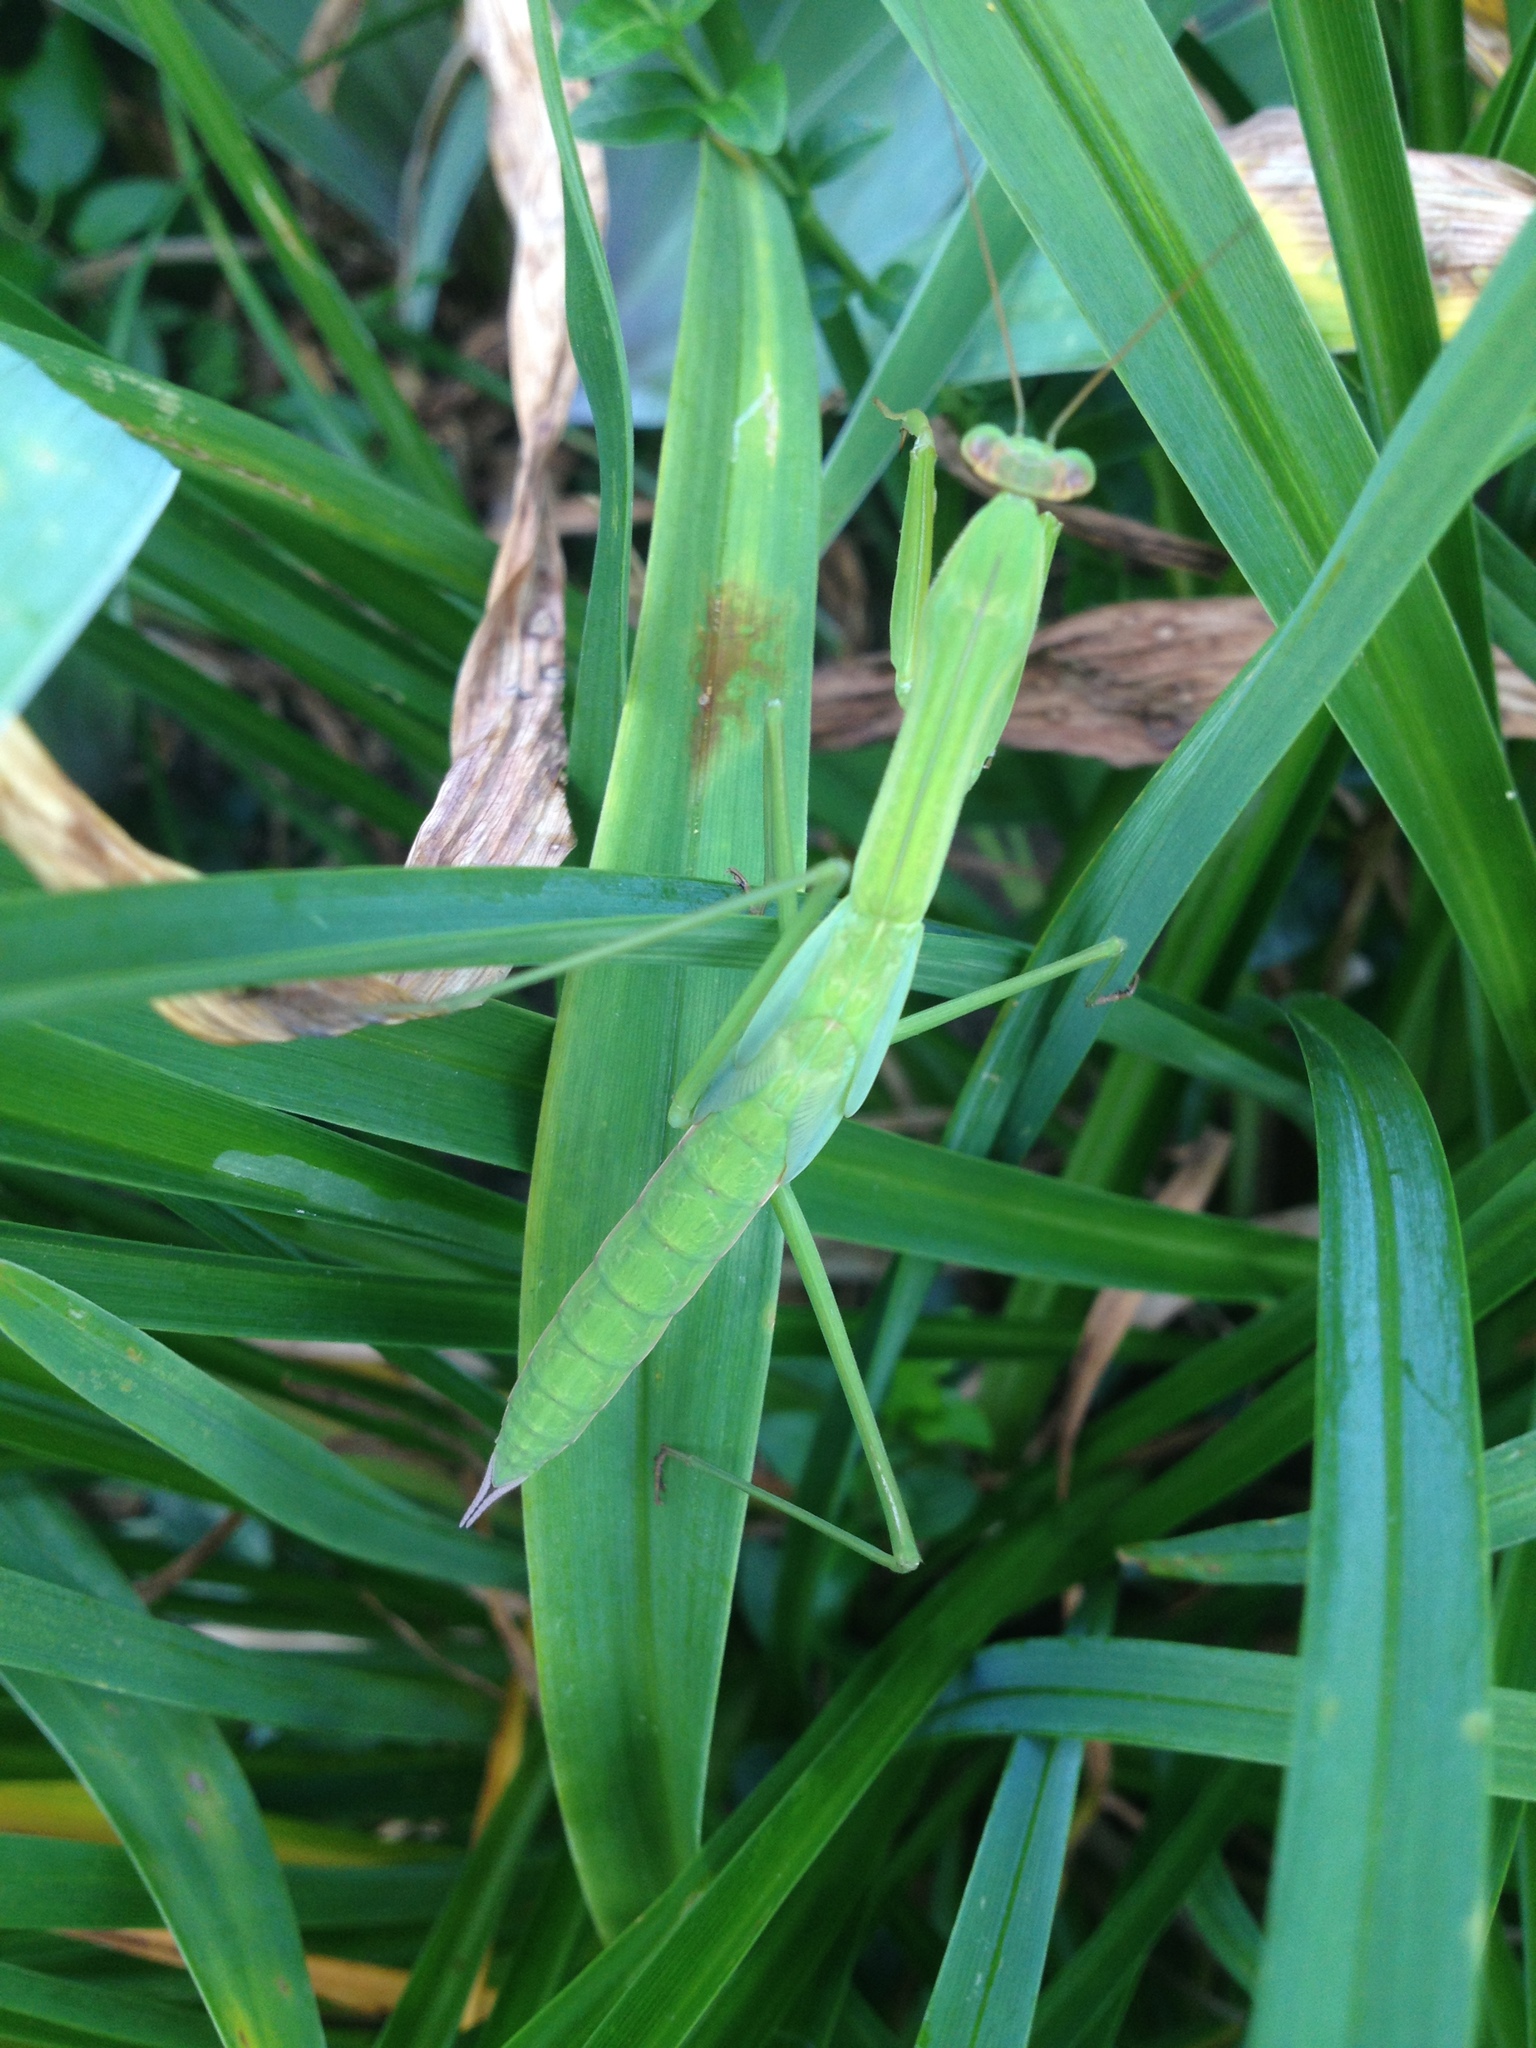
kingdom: Animalia
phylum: Arthropoda
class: Insecta
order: Mantodea
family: Mantidae
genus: Tenodera
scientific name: Tenodera sinensis
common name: Chinese mantis
